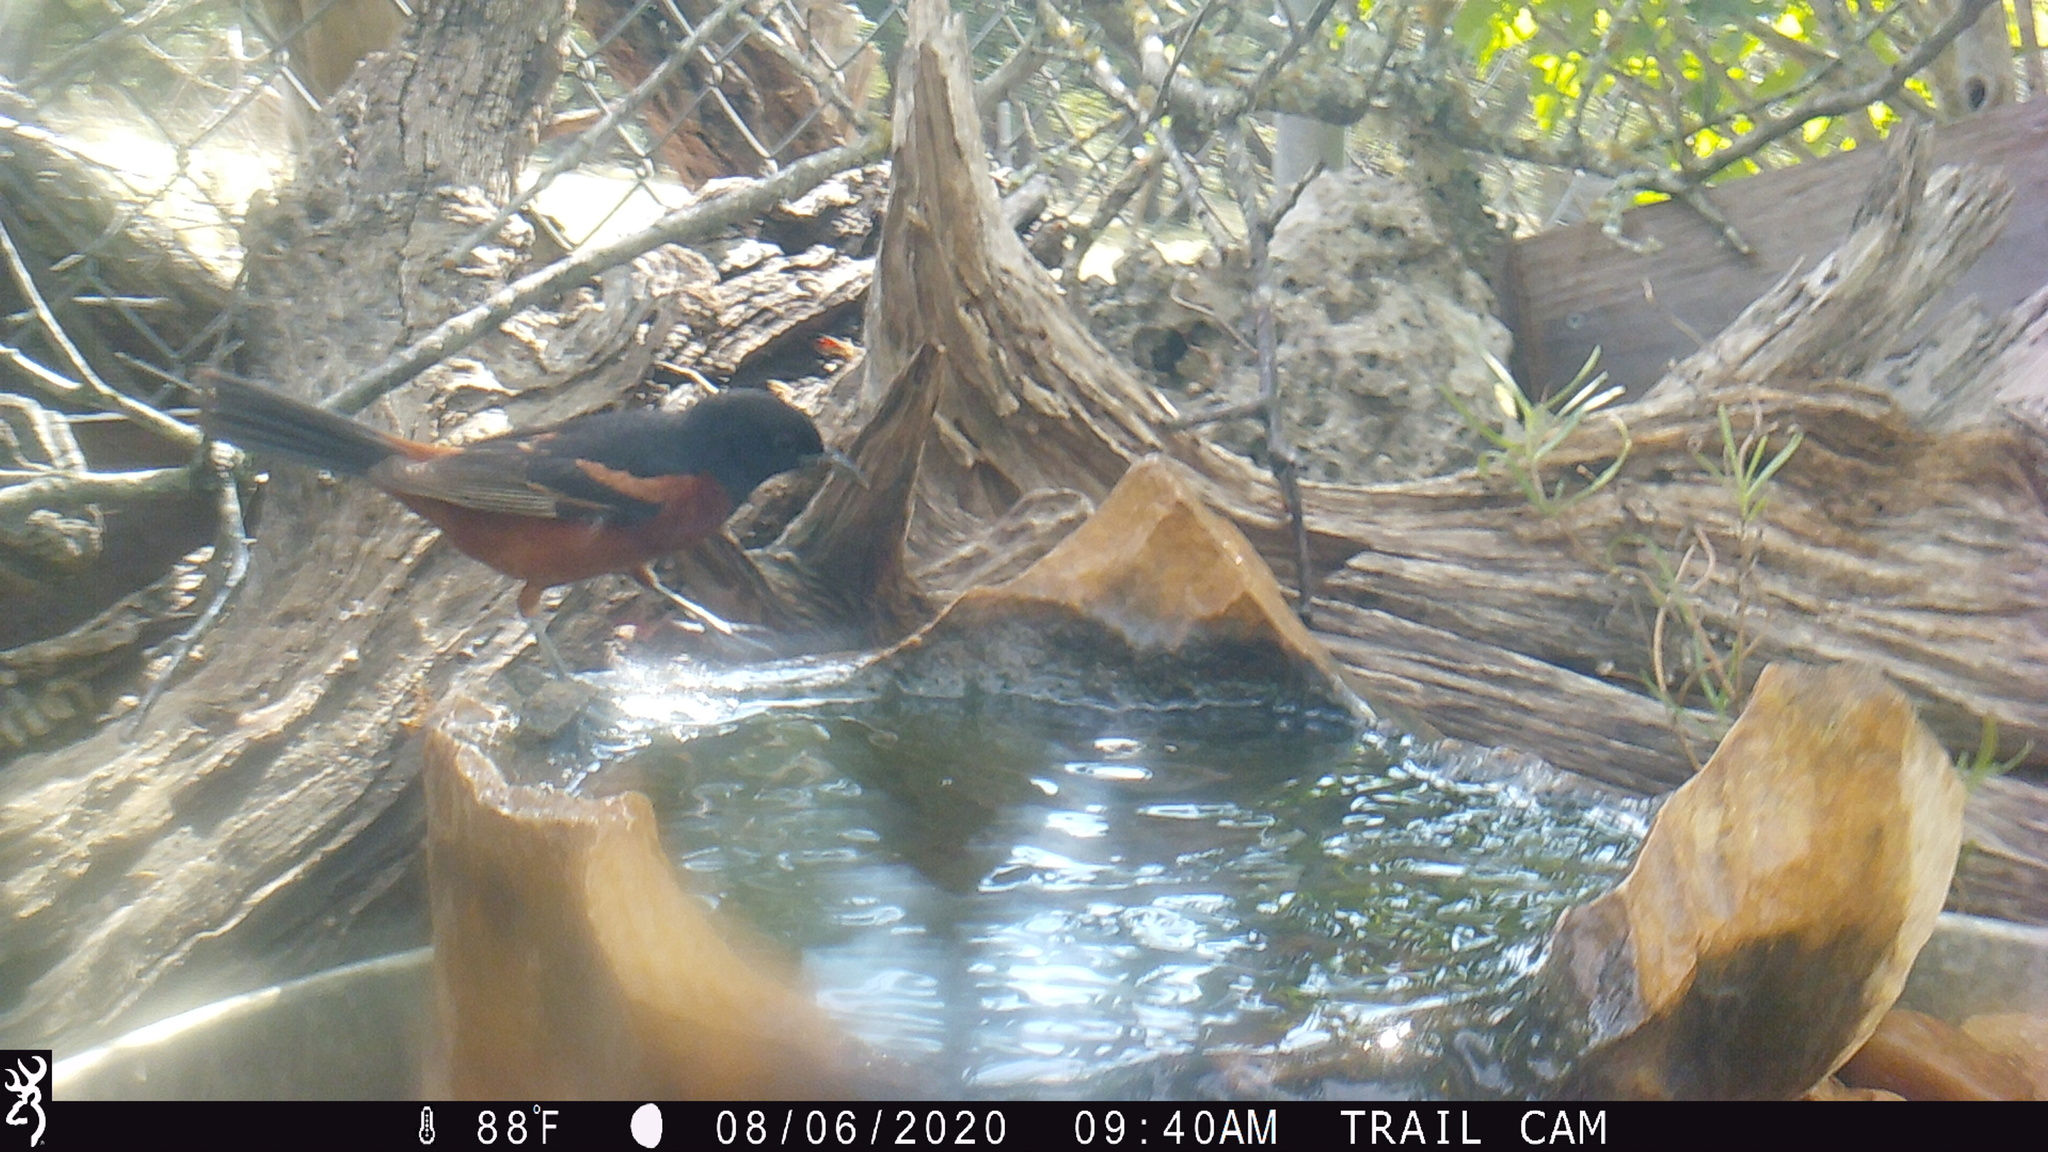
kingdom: Animalia
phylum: Chordata
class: Aves
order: Passeriformes
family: Icteridae
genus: Icterus
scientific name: Icterus spurius
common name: Orchard oriole
